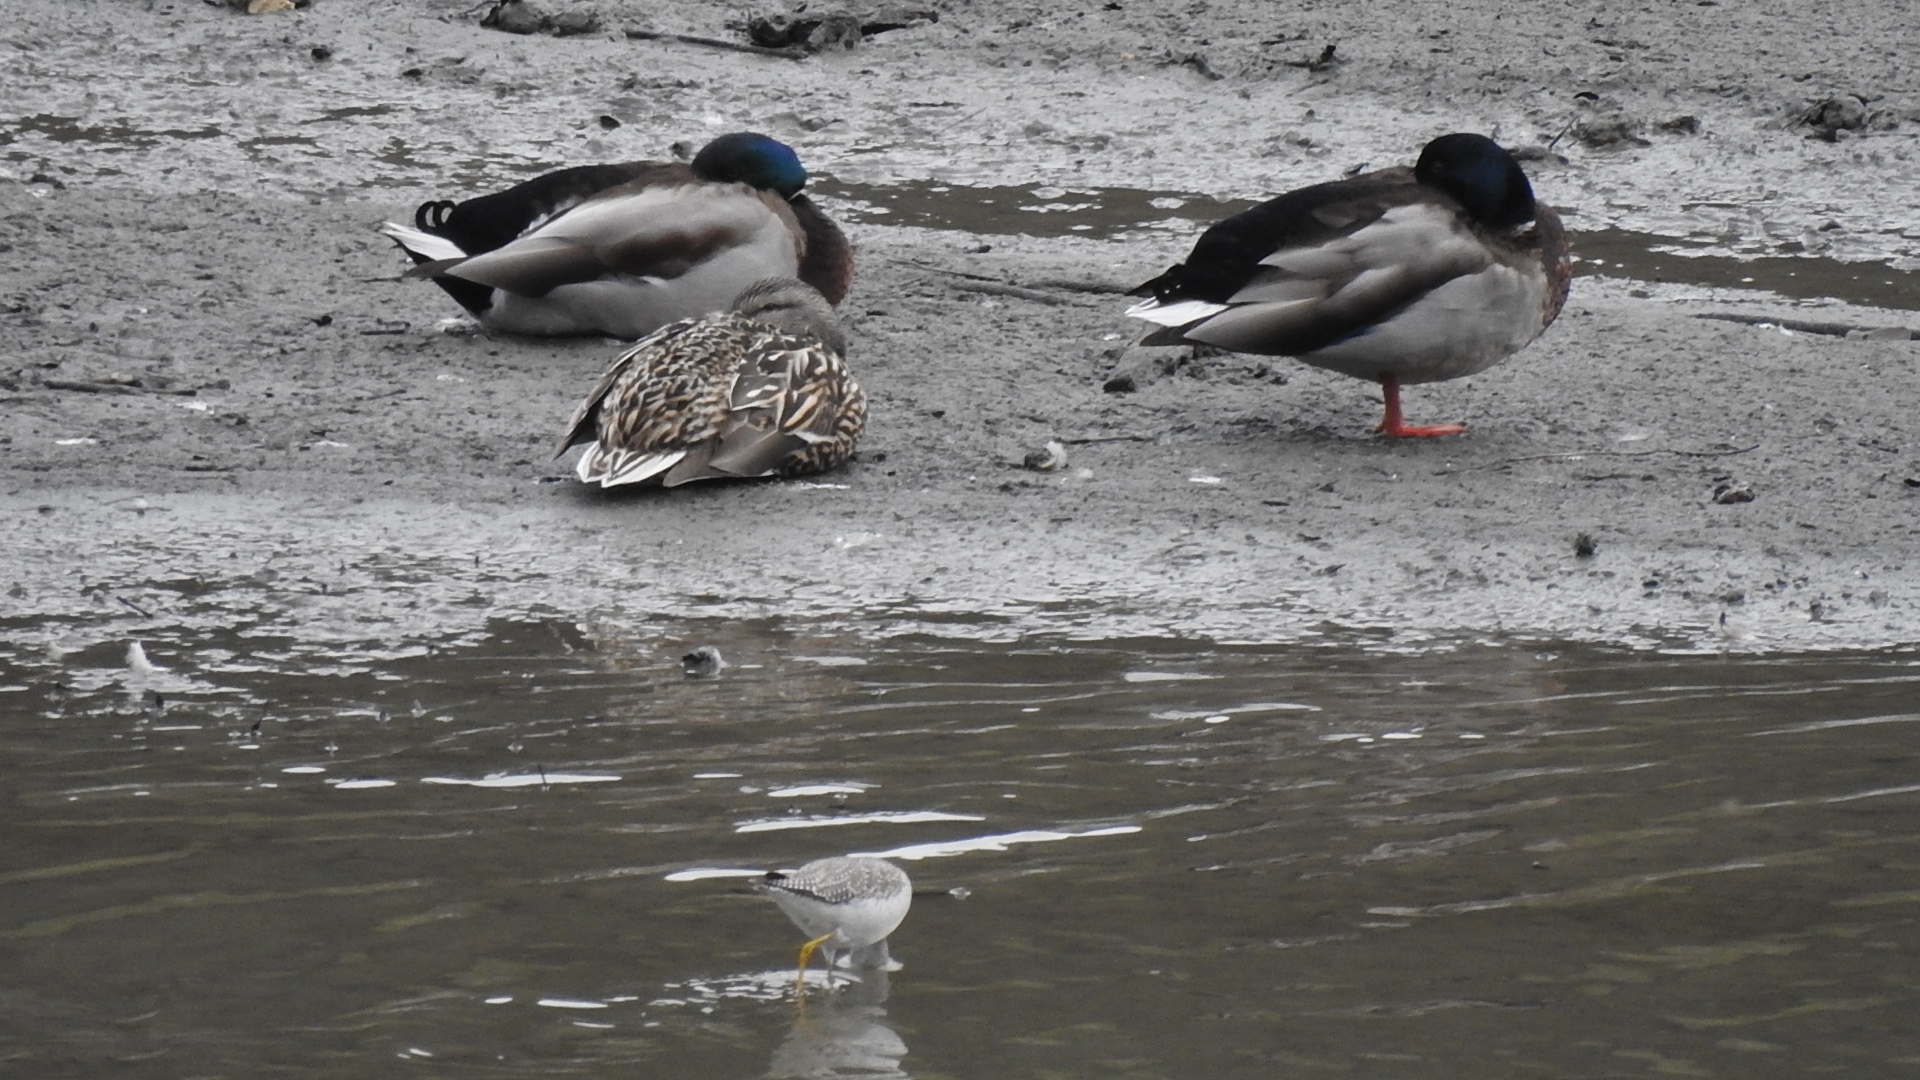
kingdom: Animalia
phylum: Chordata
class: Aves
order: Anseriformes
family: Anatidae
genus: Anas
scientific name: Anas platyrhynchos
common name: Mallard
